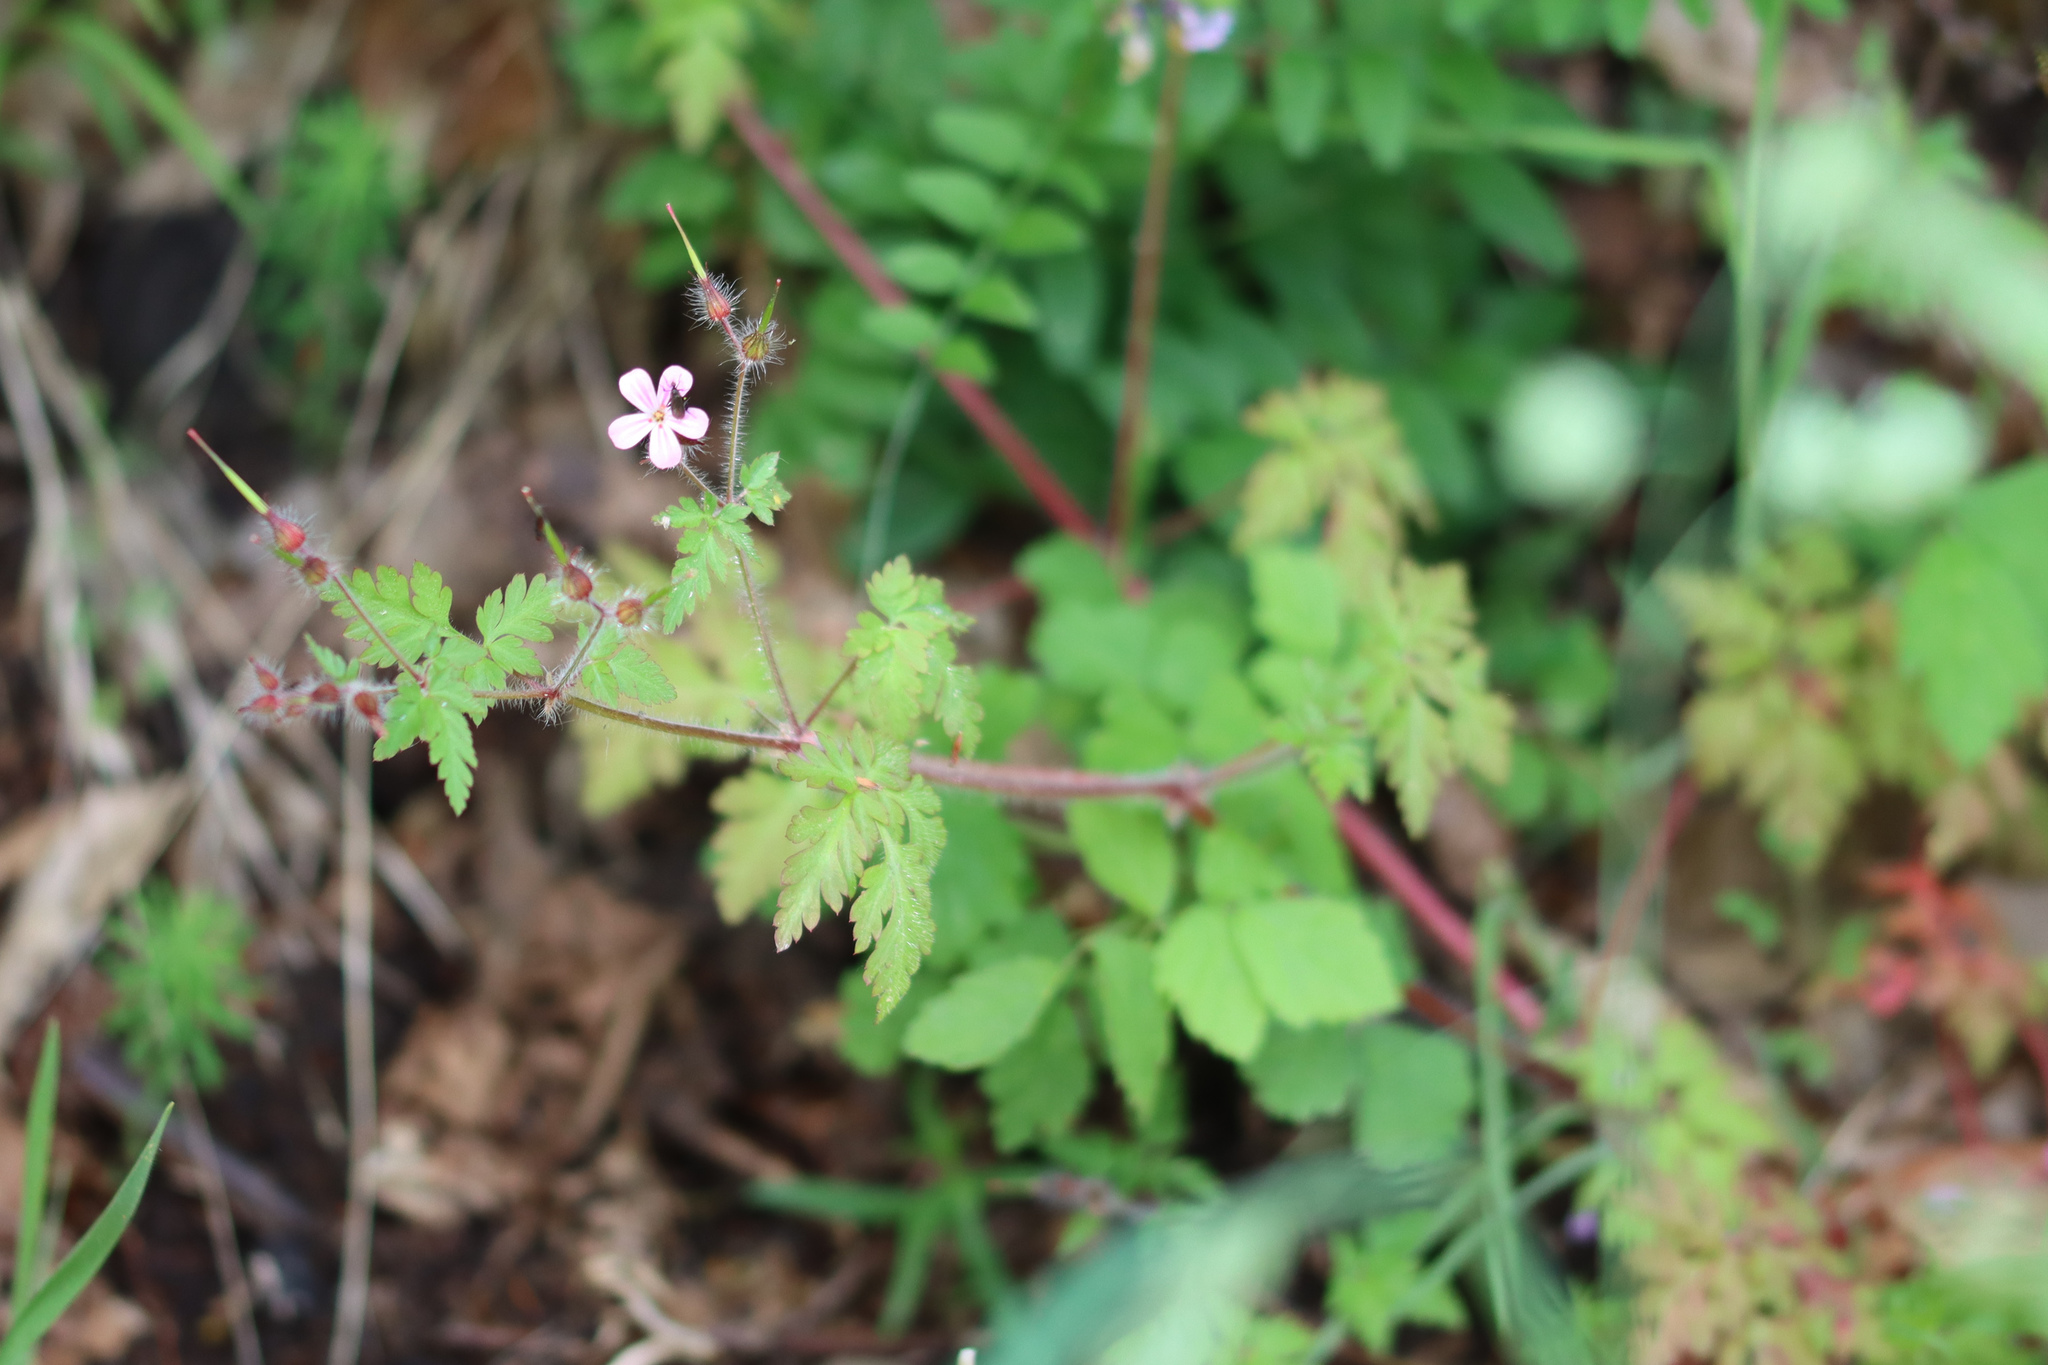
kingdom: Plantae
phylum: Tracheophyta
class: Magnoliopsida
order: Geraniales
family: Geraniaceae
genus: Geranium
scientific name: Geranium robertianum
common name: Herb-robert
